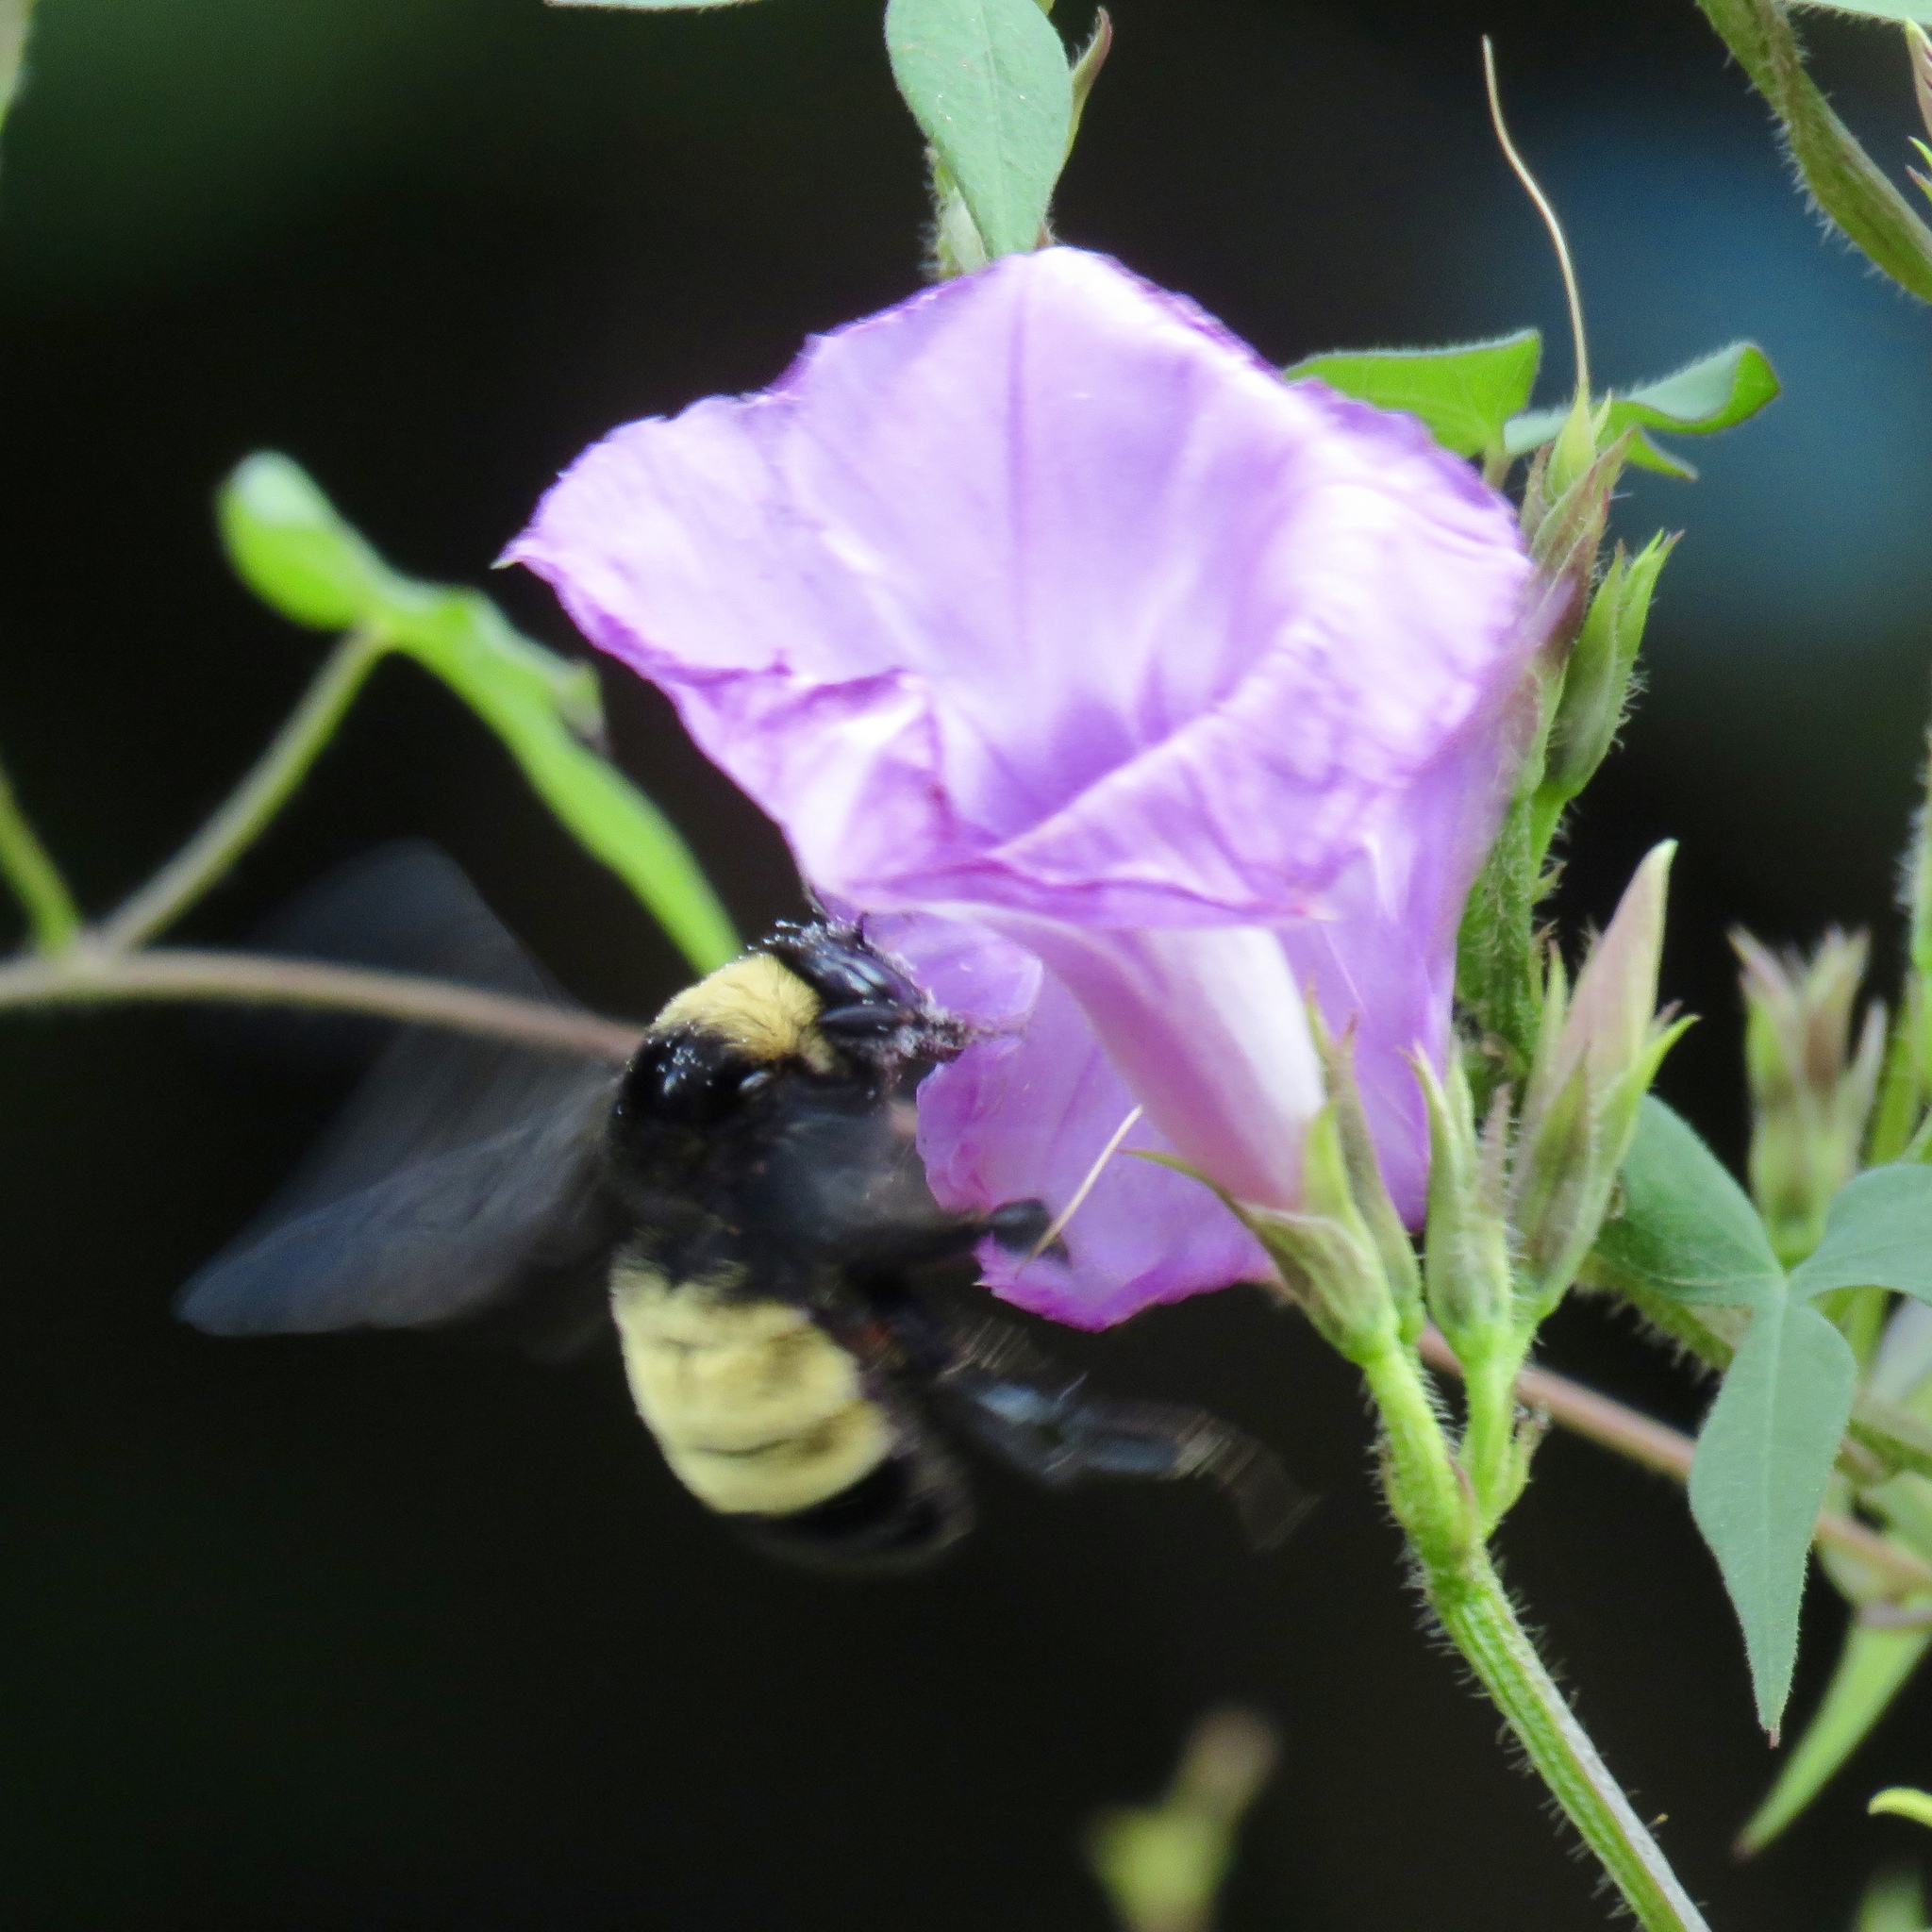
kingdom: Animalia
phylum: Arthropoda
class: Insecta
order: Hymenoptera
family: Apidae
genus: Bombus
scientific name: Bombus pensylvanicus
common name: Bumble bee
